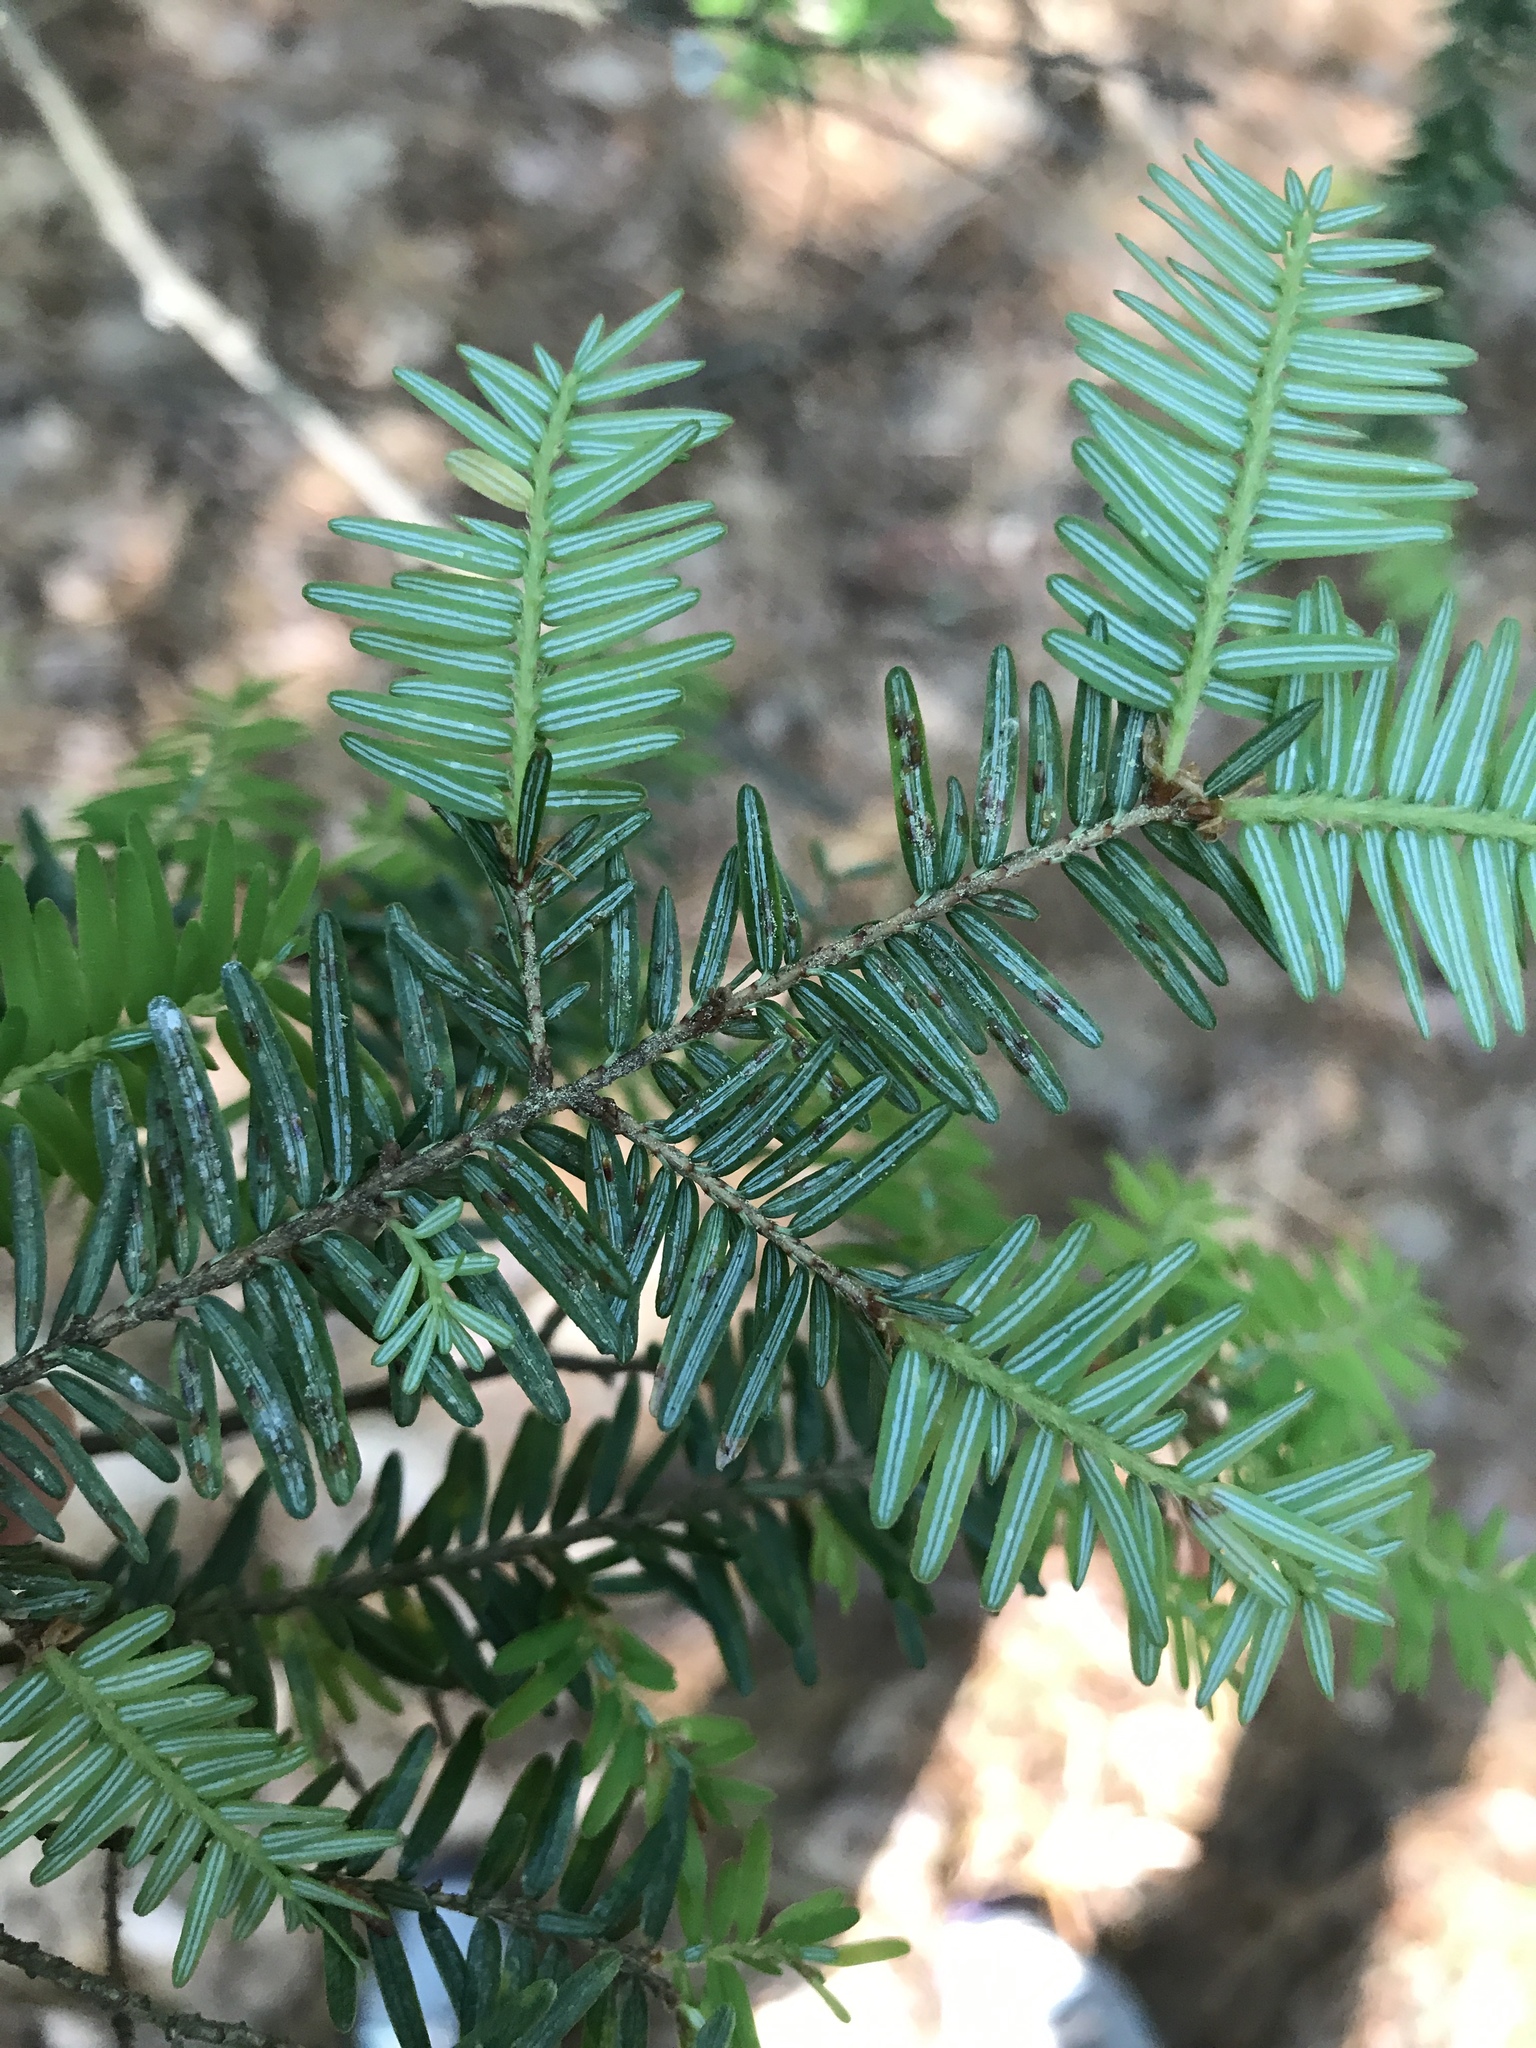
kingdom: Animalia
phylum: Arthropoda
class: Insecta
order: Hemiptera
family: Diaspididae
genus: Fiorinia
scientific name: Fiorinia externa
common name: Elongate hemlock scale
